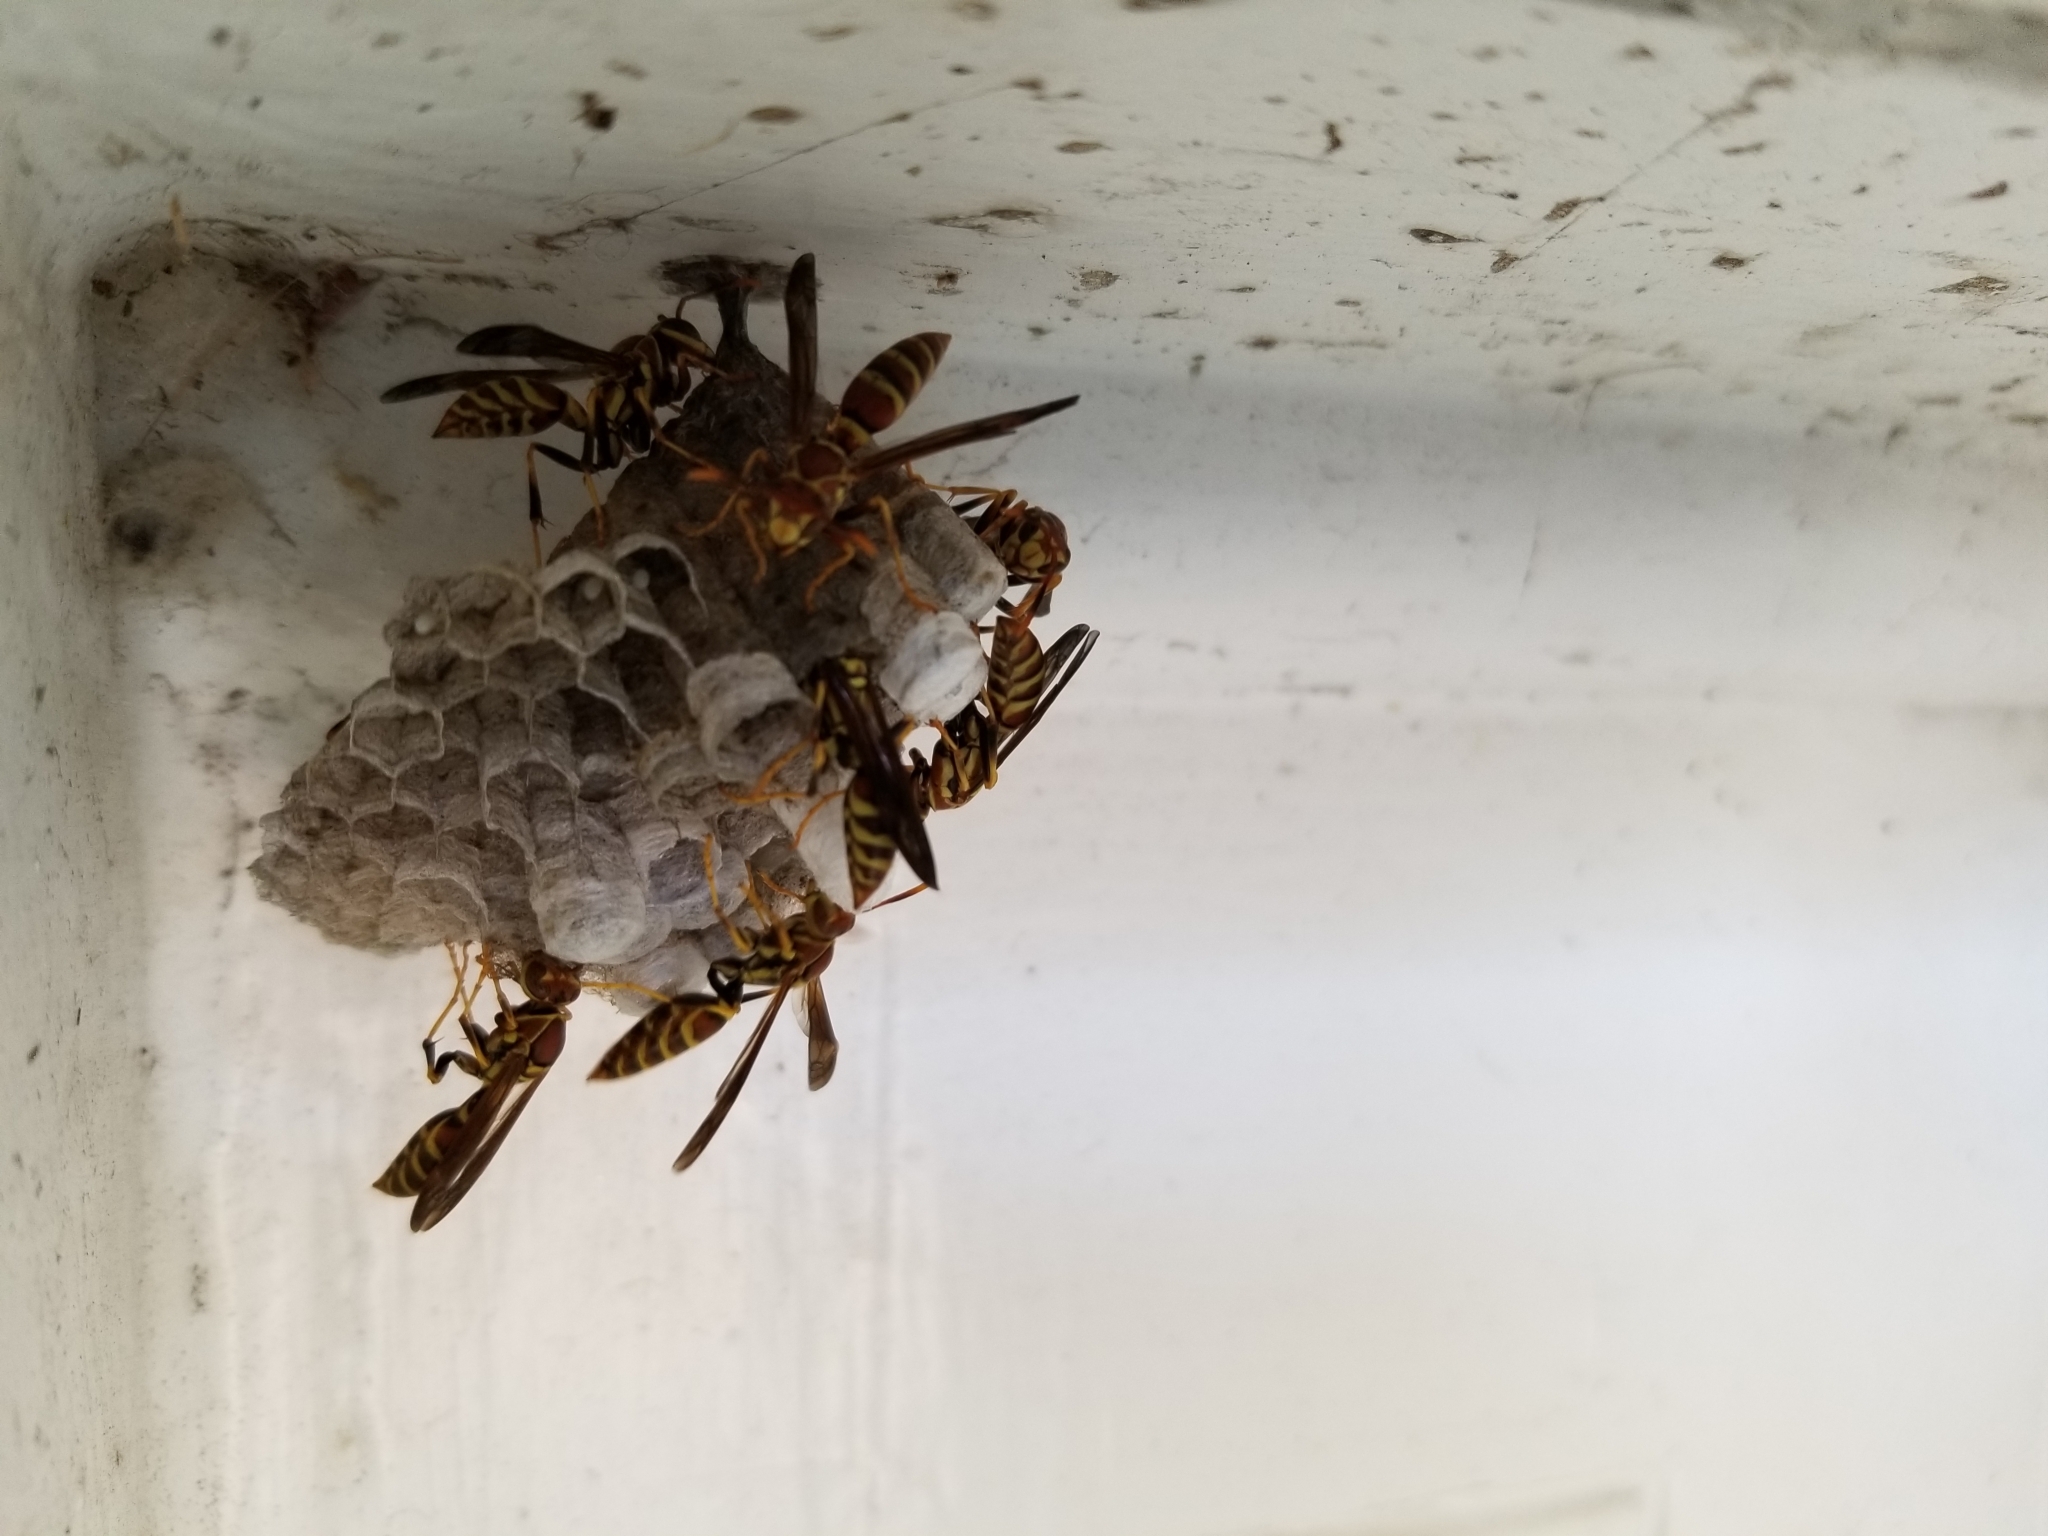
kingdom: Animalia
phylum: Arthropoda
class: Insecta
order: Hymenoptera
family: Eumenidae
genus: Polistes
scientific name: Polistes exclamans
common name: Paper wasp
